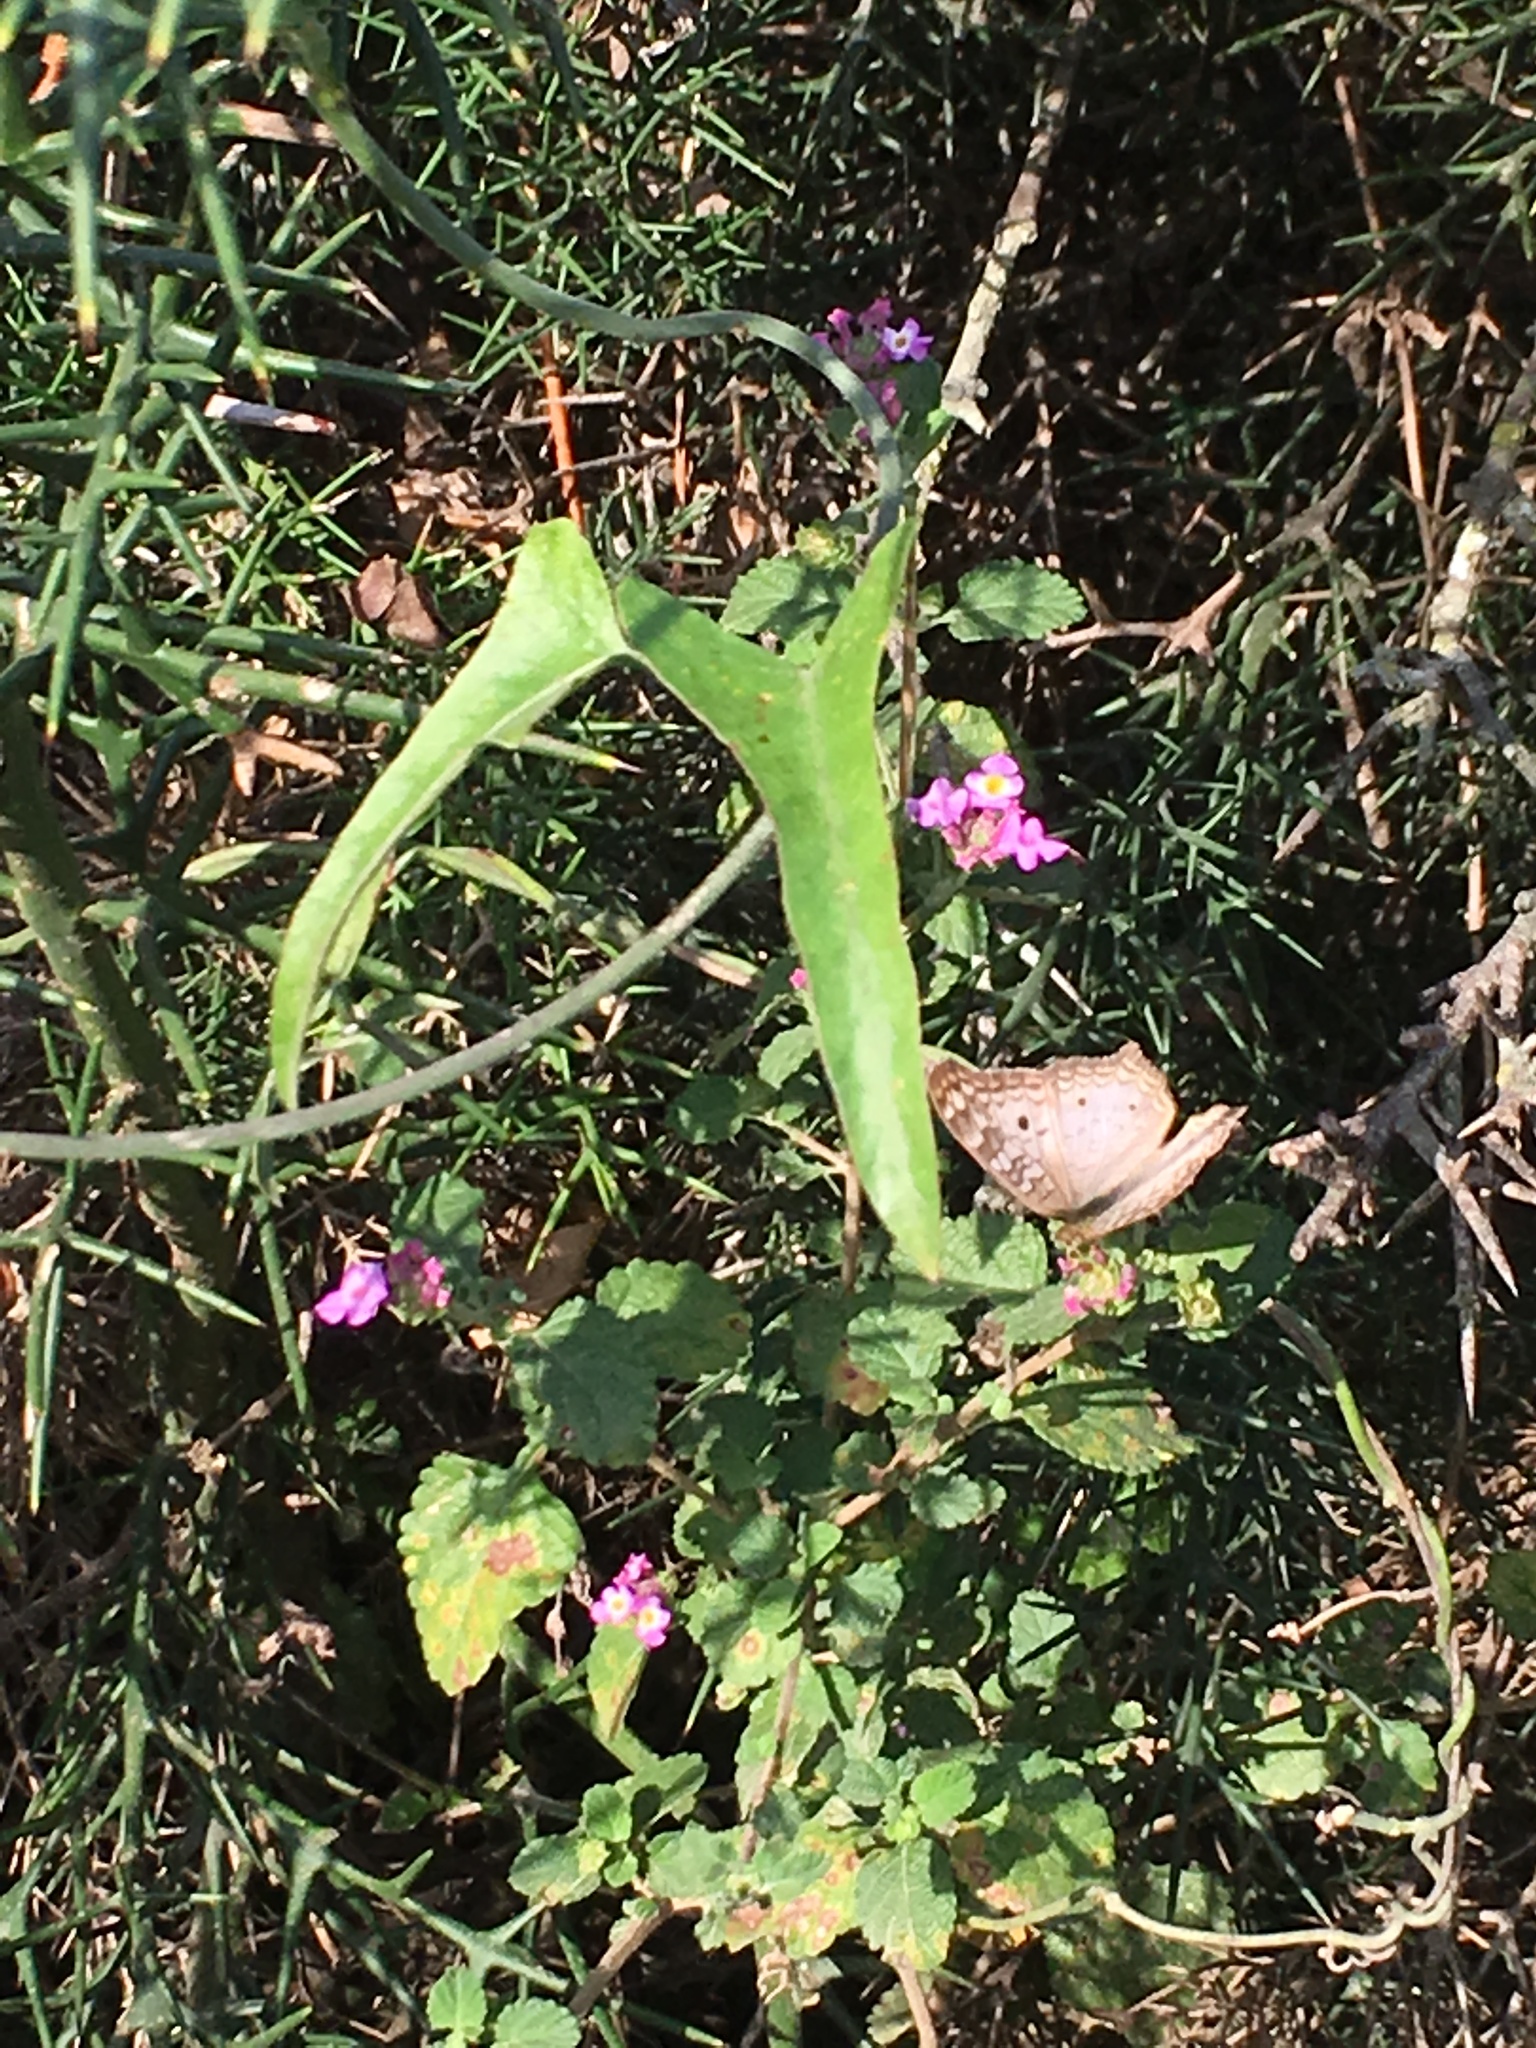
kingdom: Animalia
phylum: Arthropoda
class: Insecta
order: Lepidoptera
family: Nymphalidae
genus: Anartia
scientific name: Anartia jatrophae
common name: White peacock
